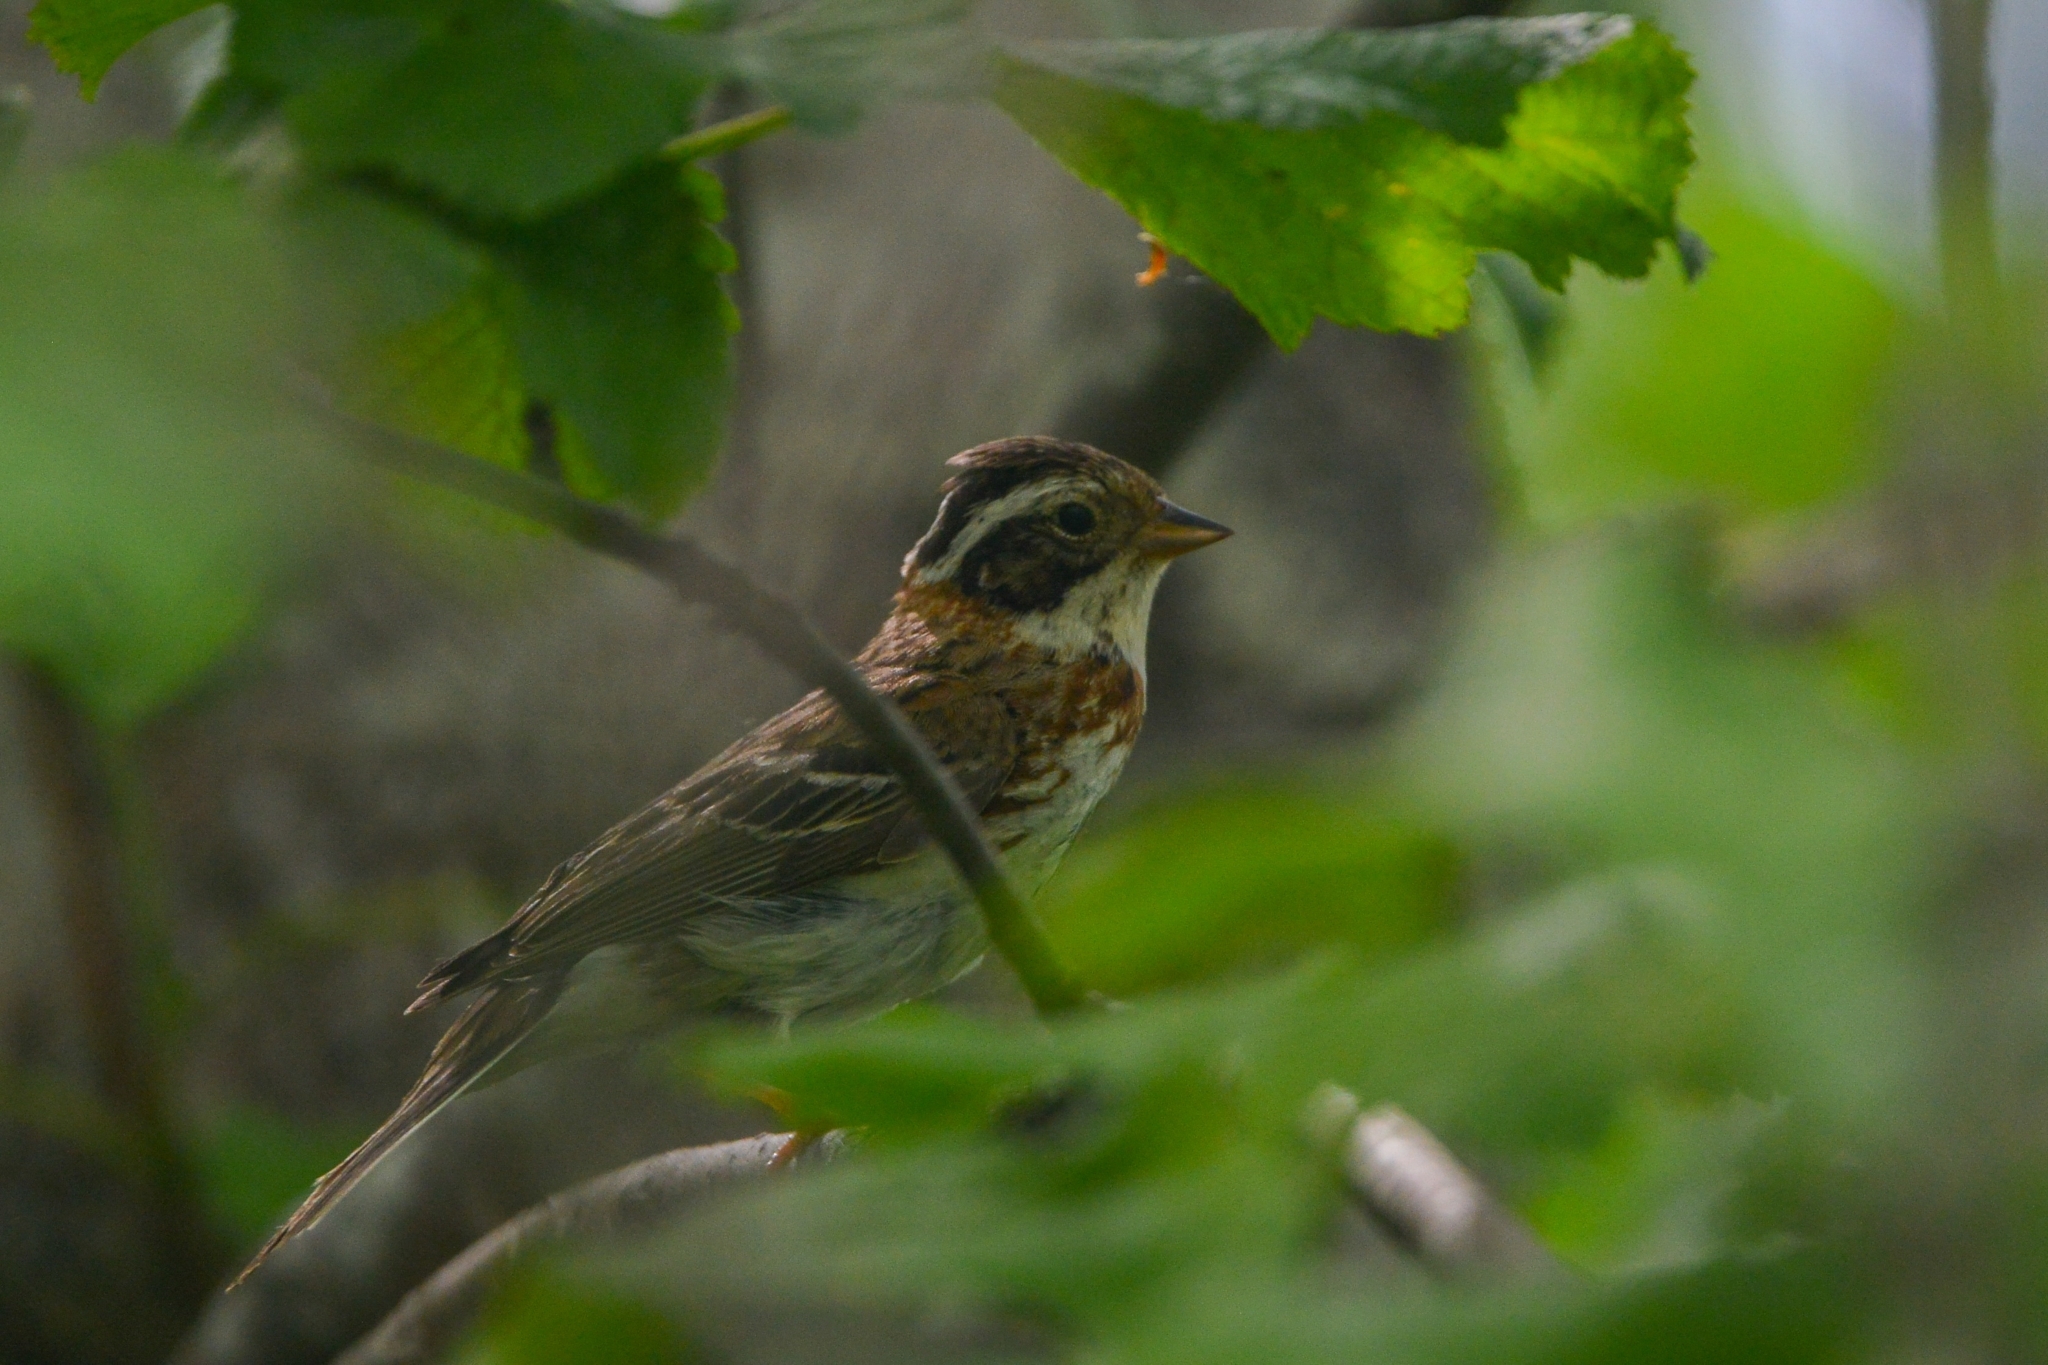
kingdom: Animalia
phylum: Chordata
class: Aves
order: Passeriformes
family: Emberizidae
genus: Emberiza
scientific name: Emberiza rustica
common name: Rustic bunting
